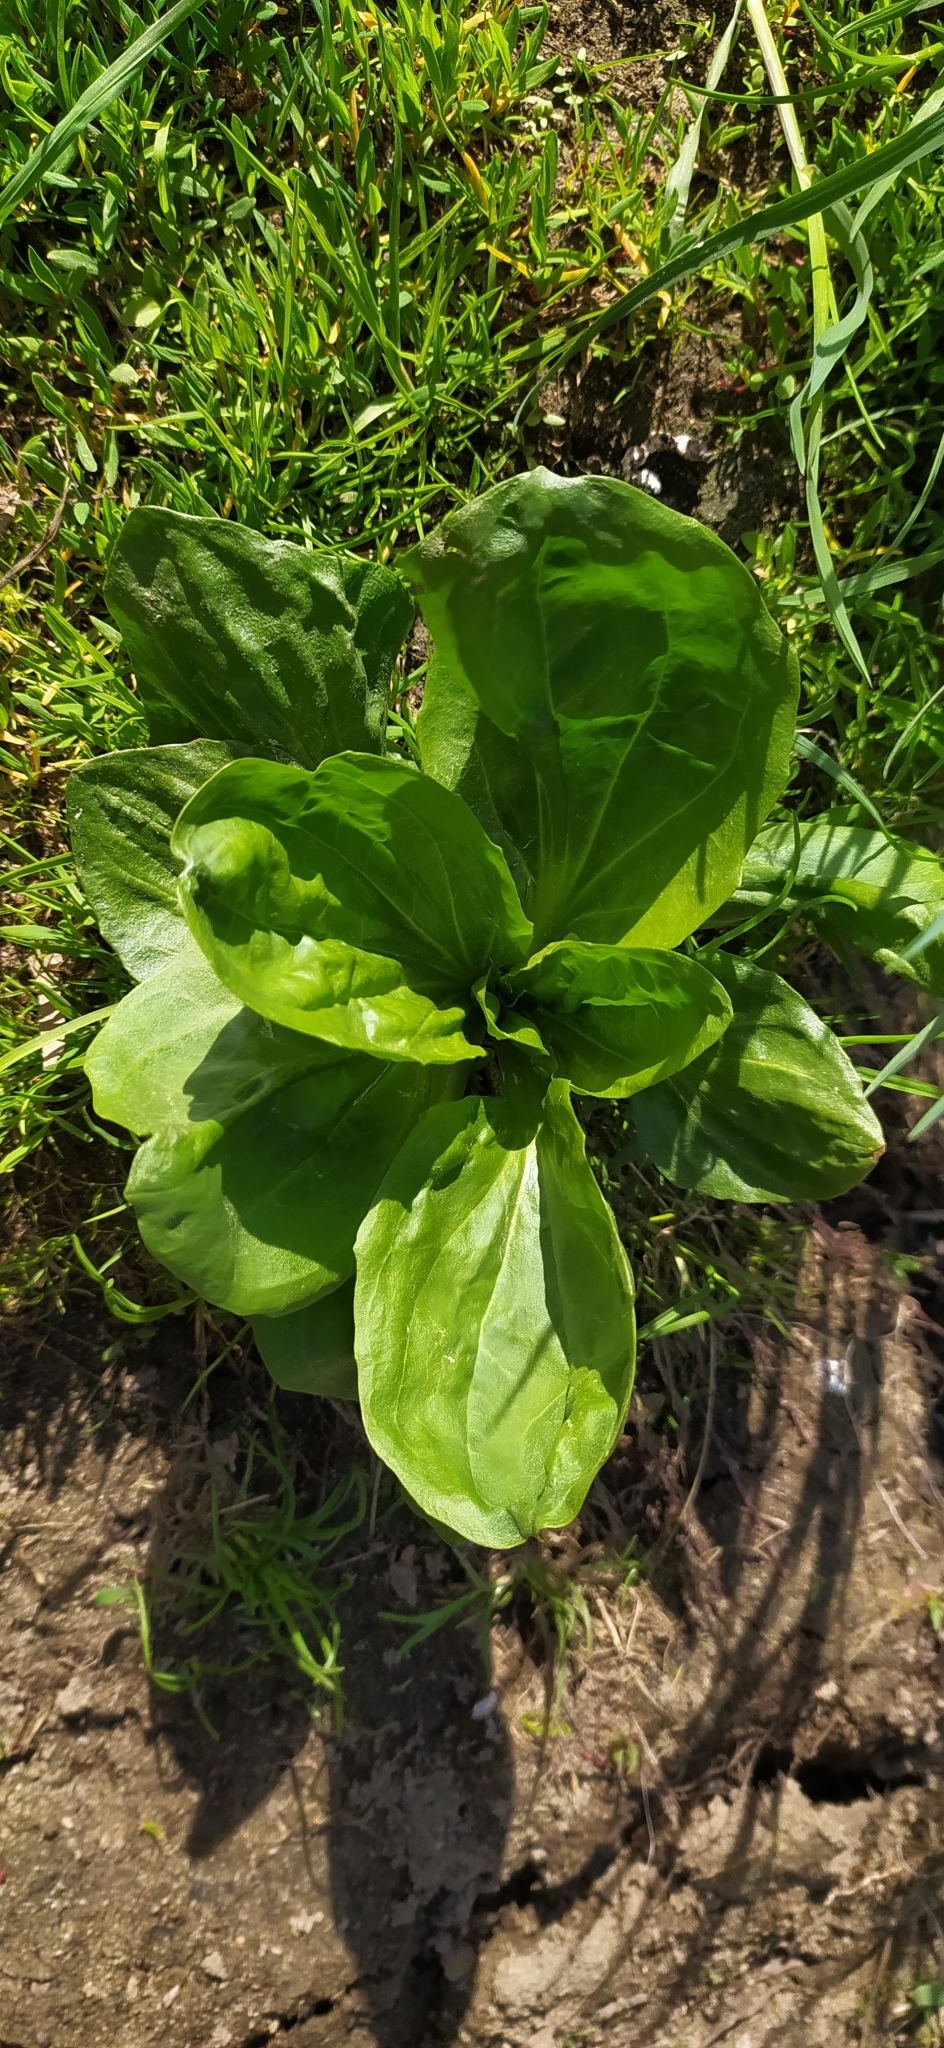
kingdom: Plantae
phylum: Tracheophyta
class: Magnoliopsida
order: Lamiales
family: Plantaginaceae
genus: Plantago
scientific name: Plantago major
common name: Common plantain
